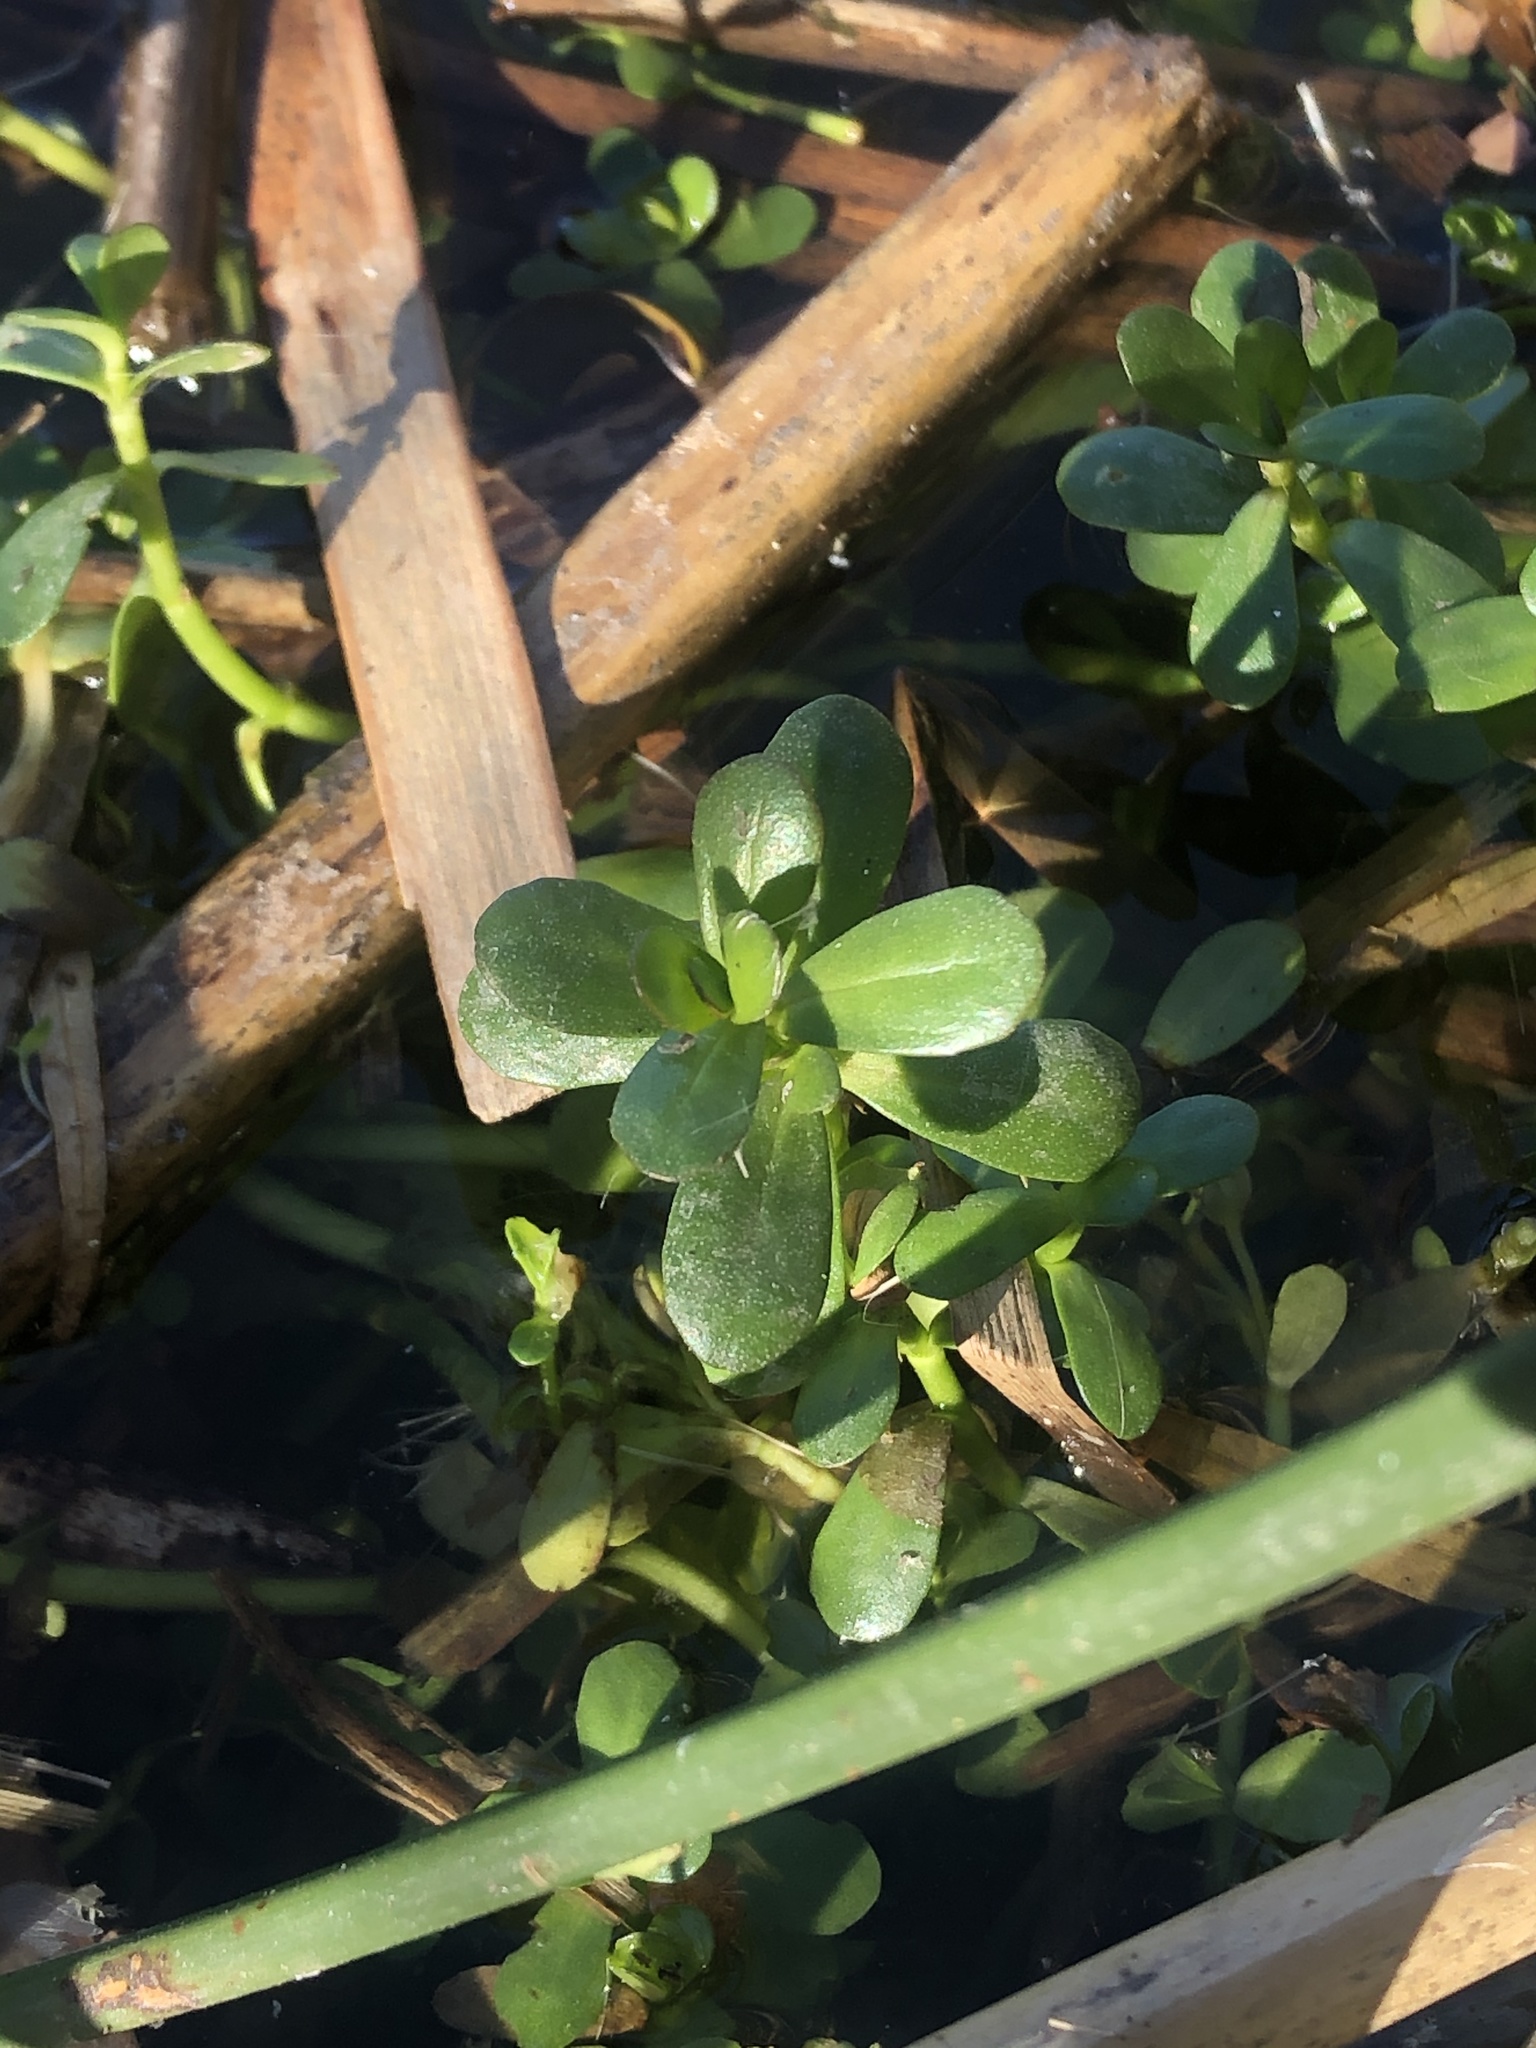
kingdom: Plantae
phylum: Tracheophyta
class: Magnoliopsida
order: Lamiales
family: Plantaginaceae
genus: Bacopa
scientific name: Bacopa monnieri
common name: Indian-pennywort
